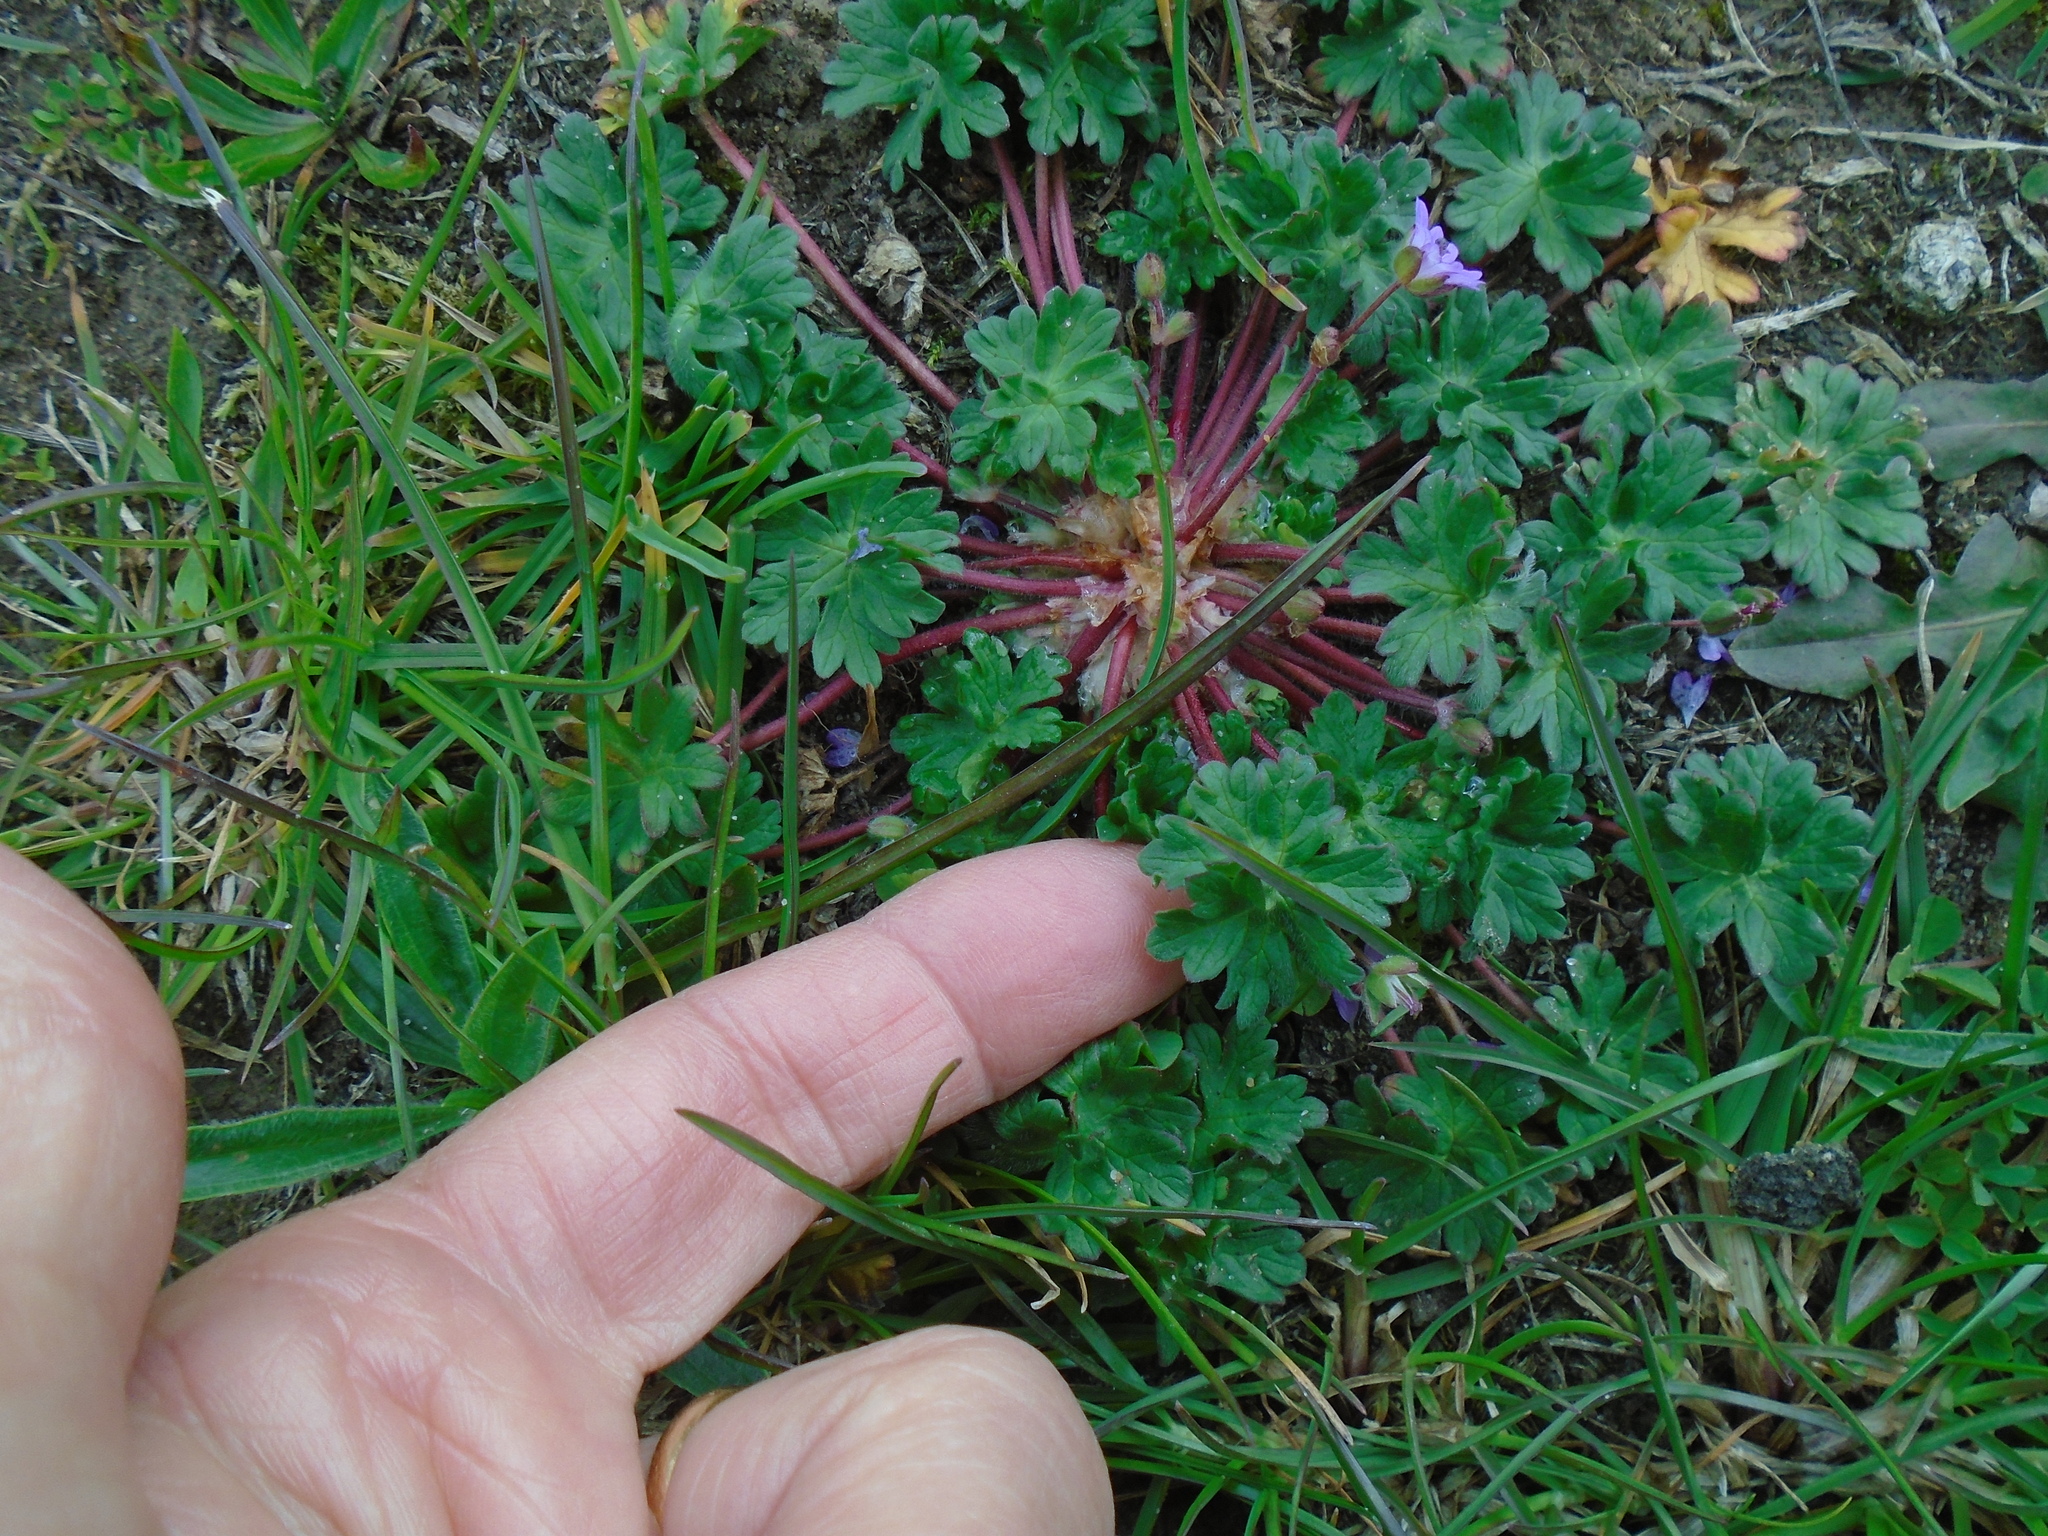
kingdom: Plantae
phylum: Tracheophyta
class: Magnoliopsida
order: Geraniales
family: Geraniaceae
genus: Geranium
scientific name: Geranium molle
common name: Dove's-foot crane's-bill
